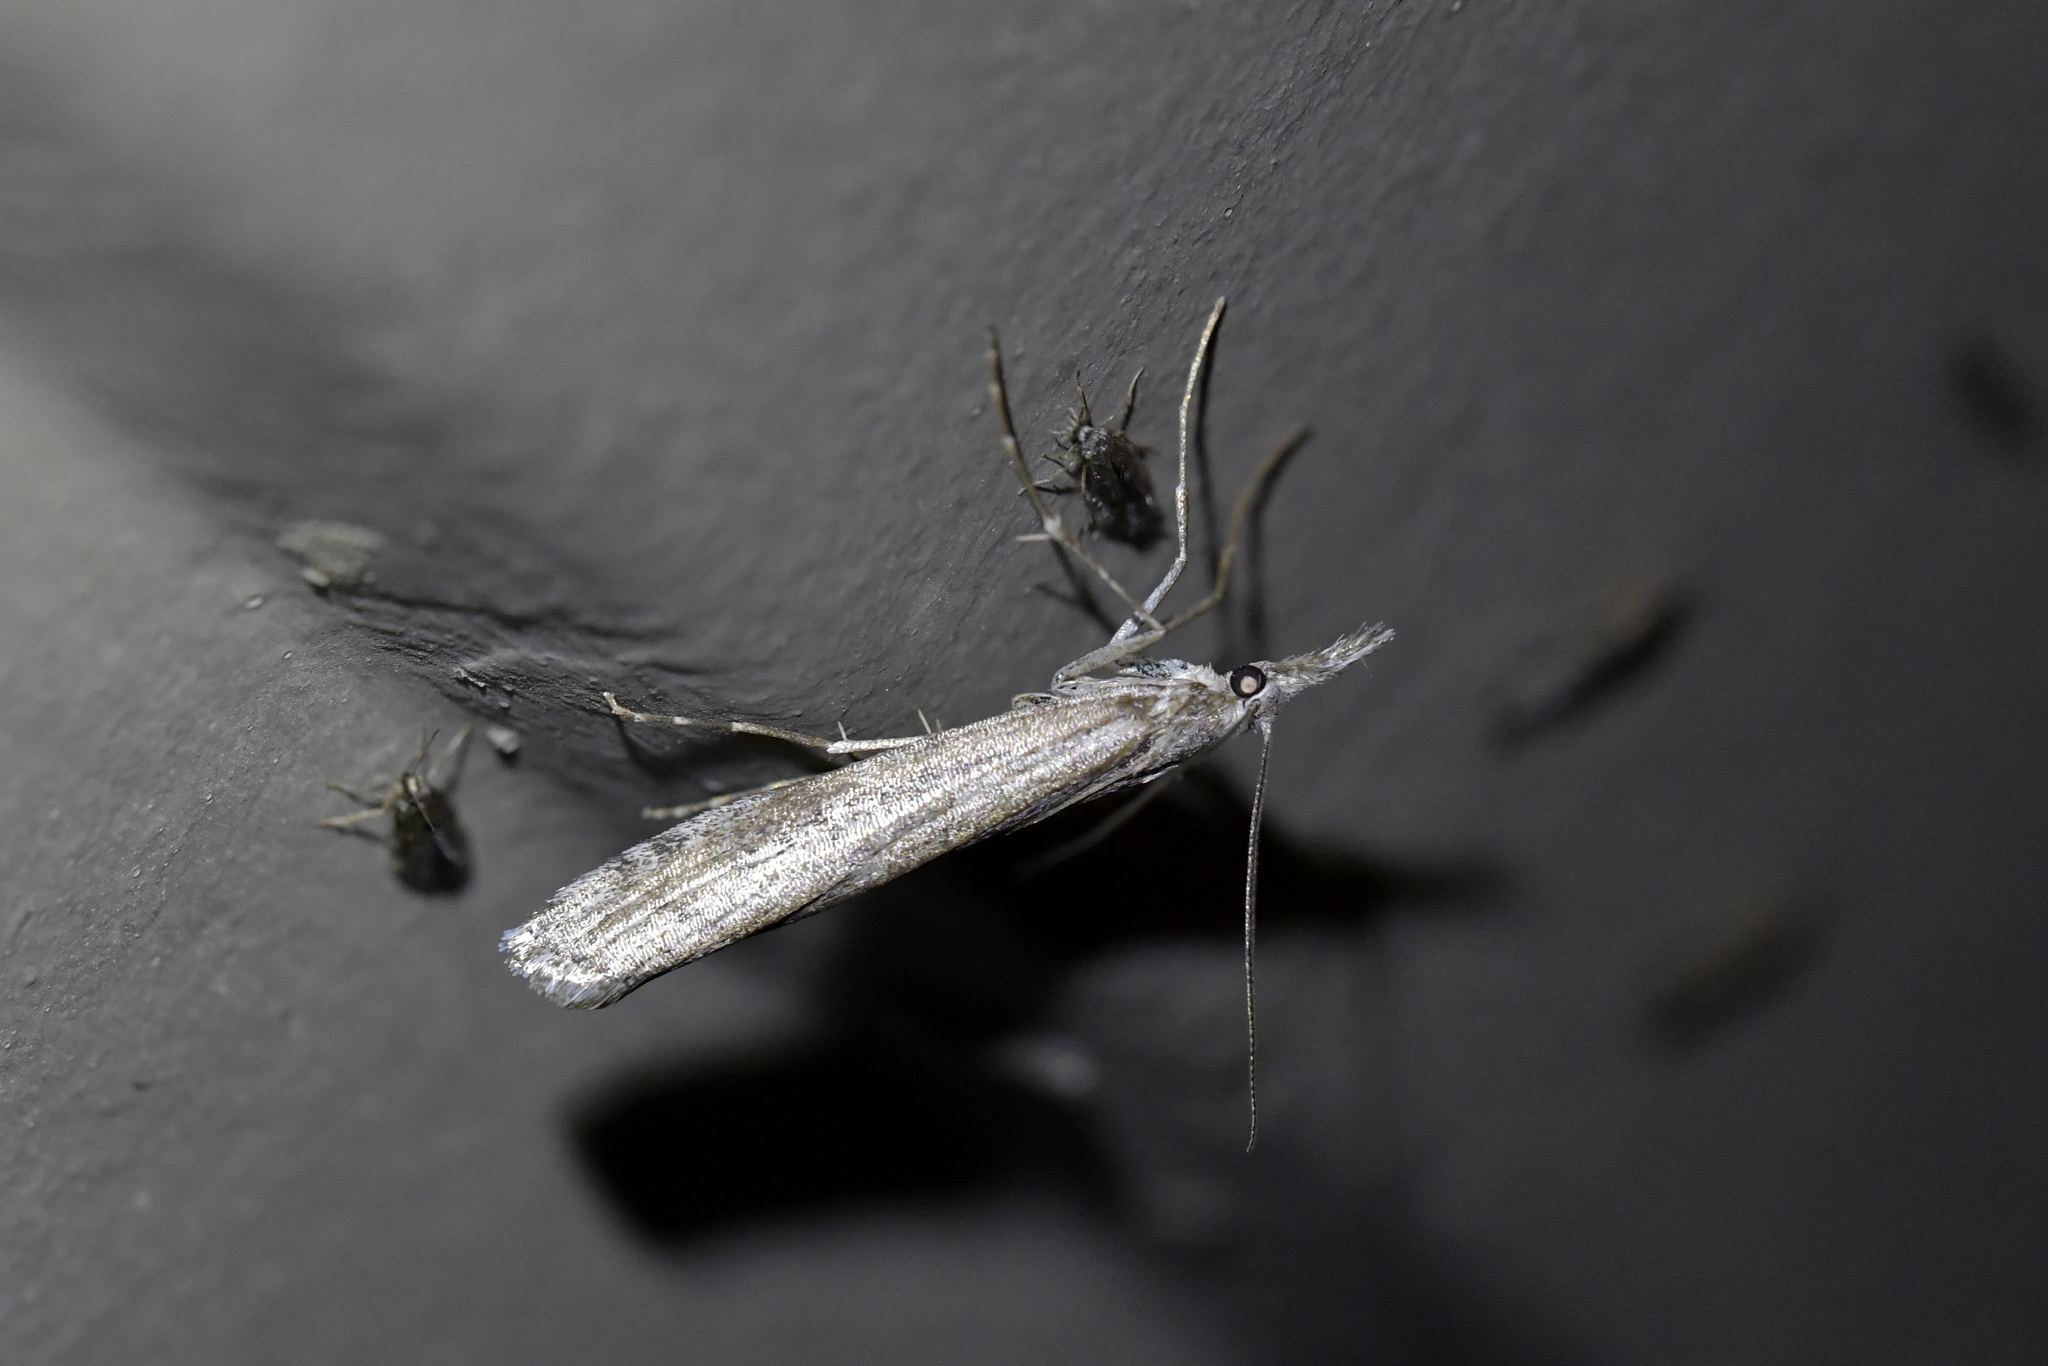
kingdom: Animalia
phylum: Arthropoda
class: Insecta
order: Lepidoptera
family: Crambidae
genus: Orocrambus
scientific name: Orocrambus cyclopicus
